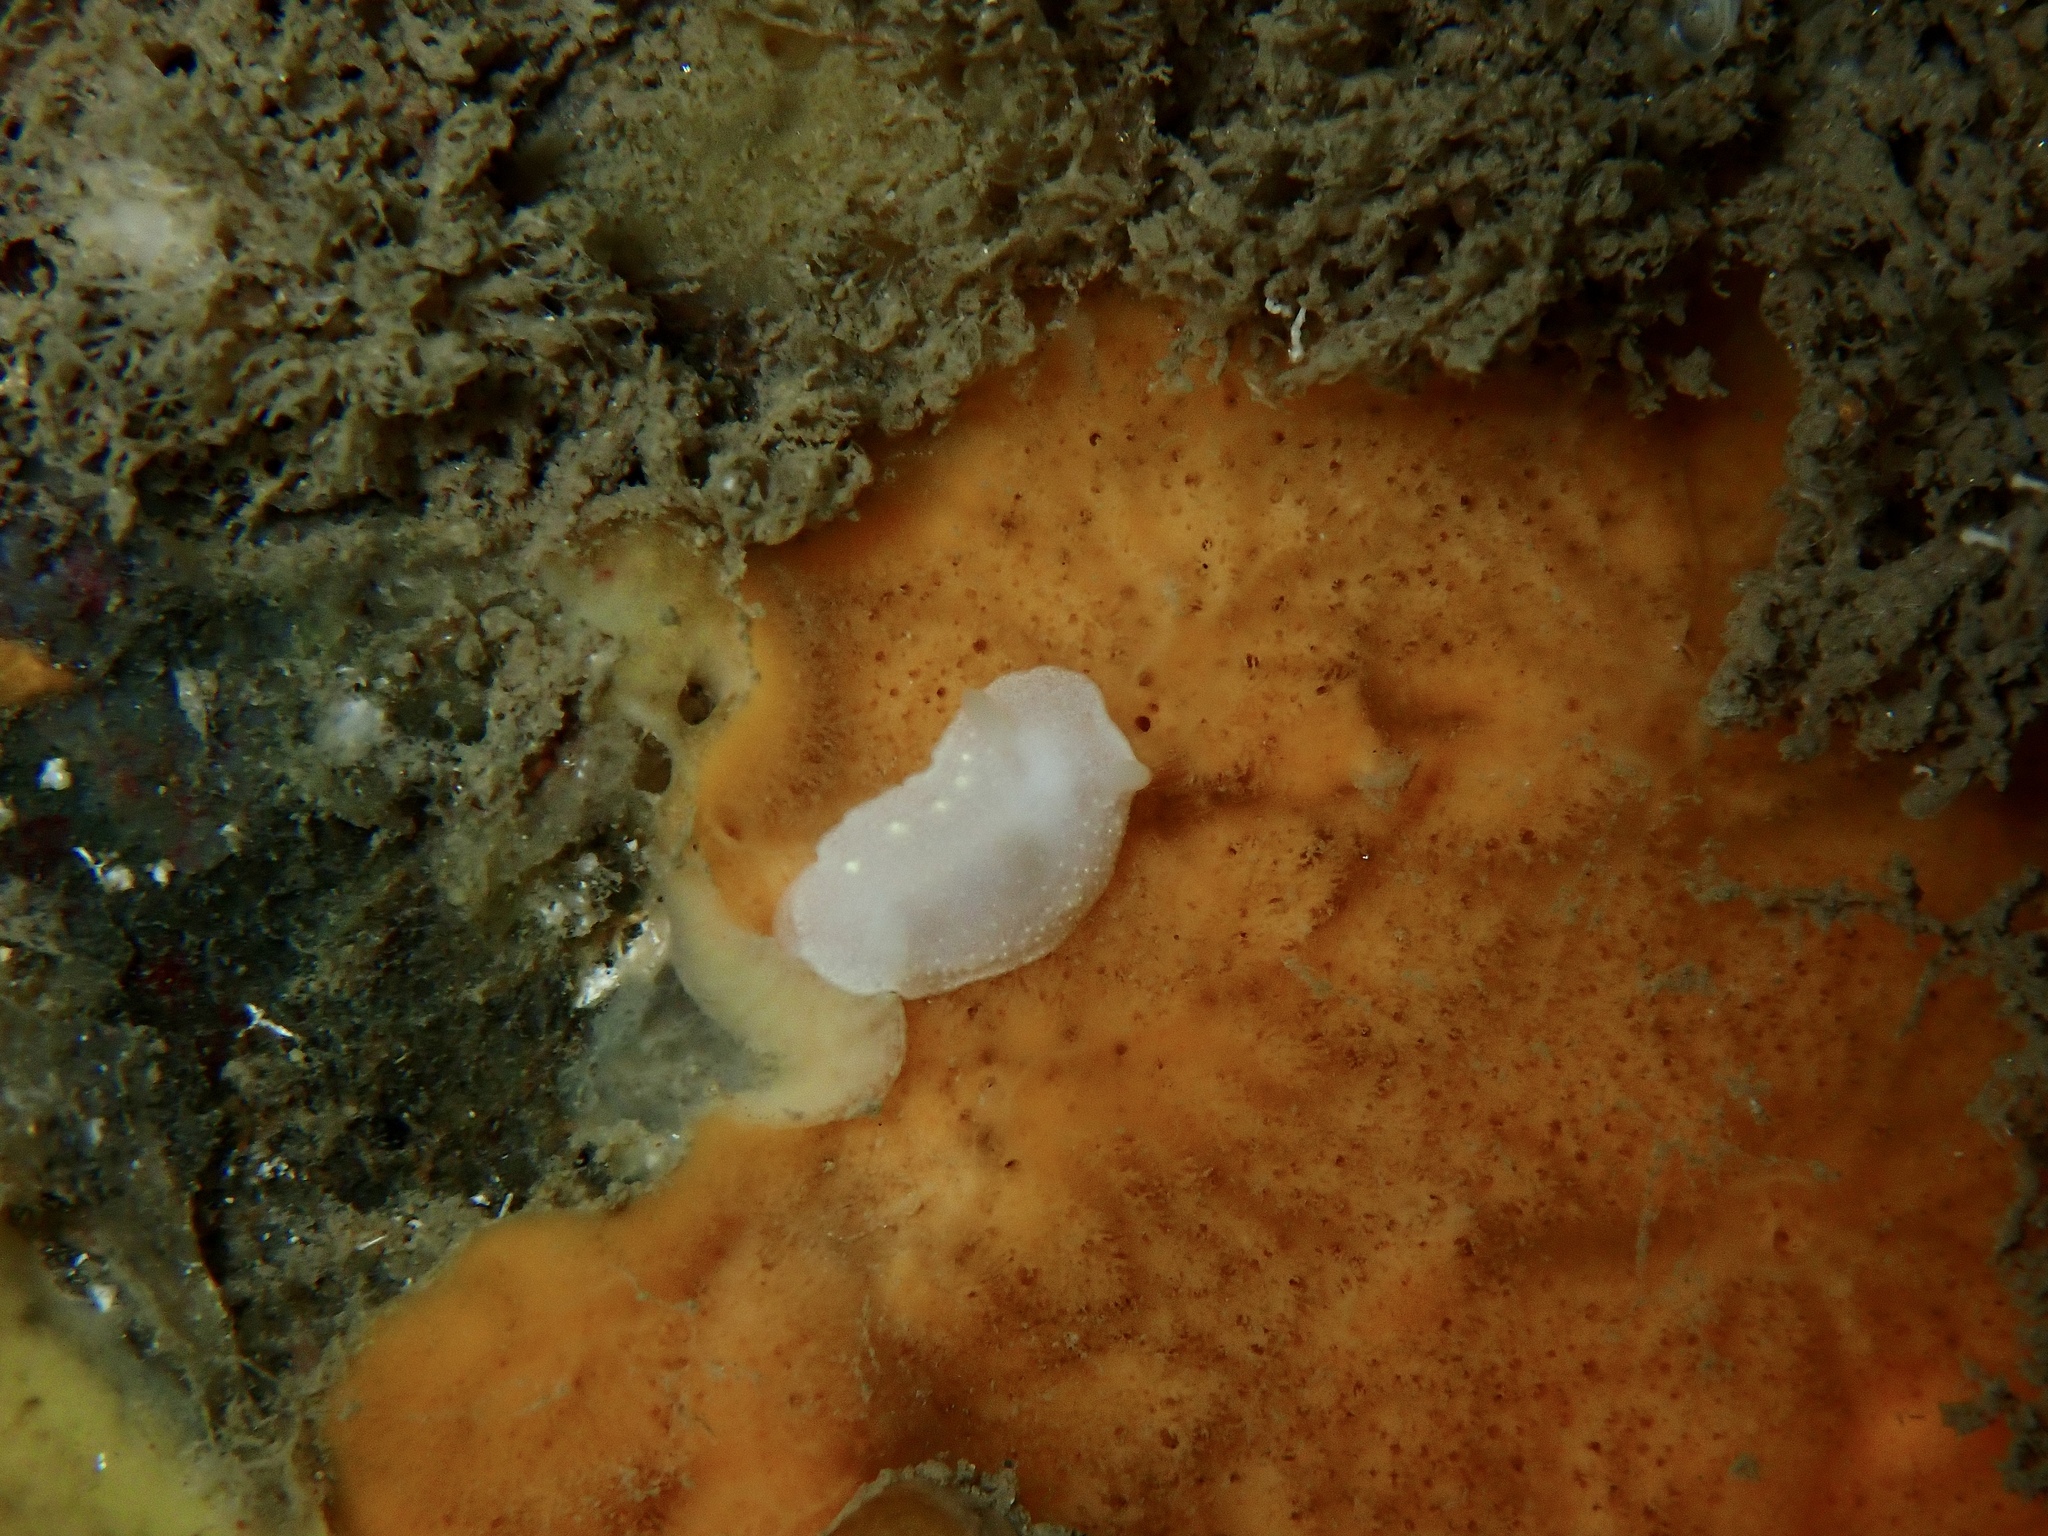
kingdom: Animalia
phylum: Mollusca
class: Gastropoda
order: Nudibranchia
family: Cadlinidae
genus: Cadlina
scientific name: Cadlina laevis
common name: White atlantic cadlina
